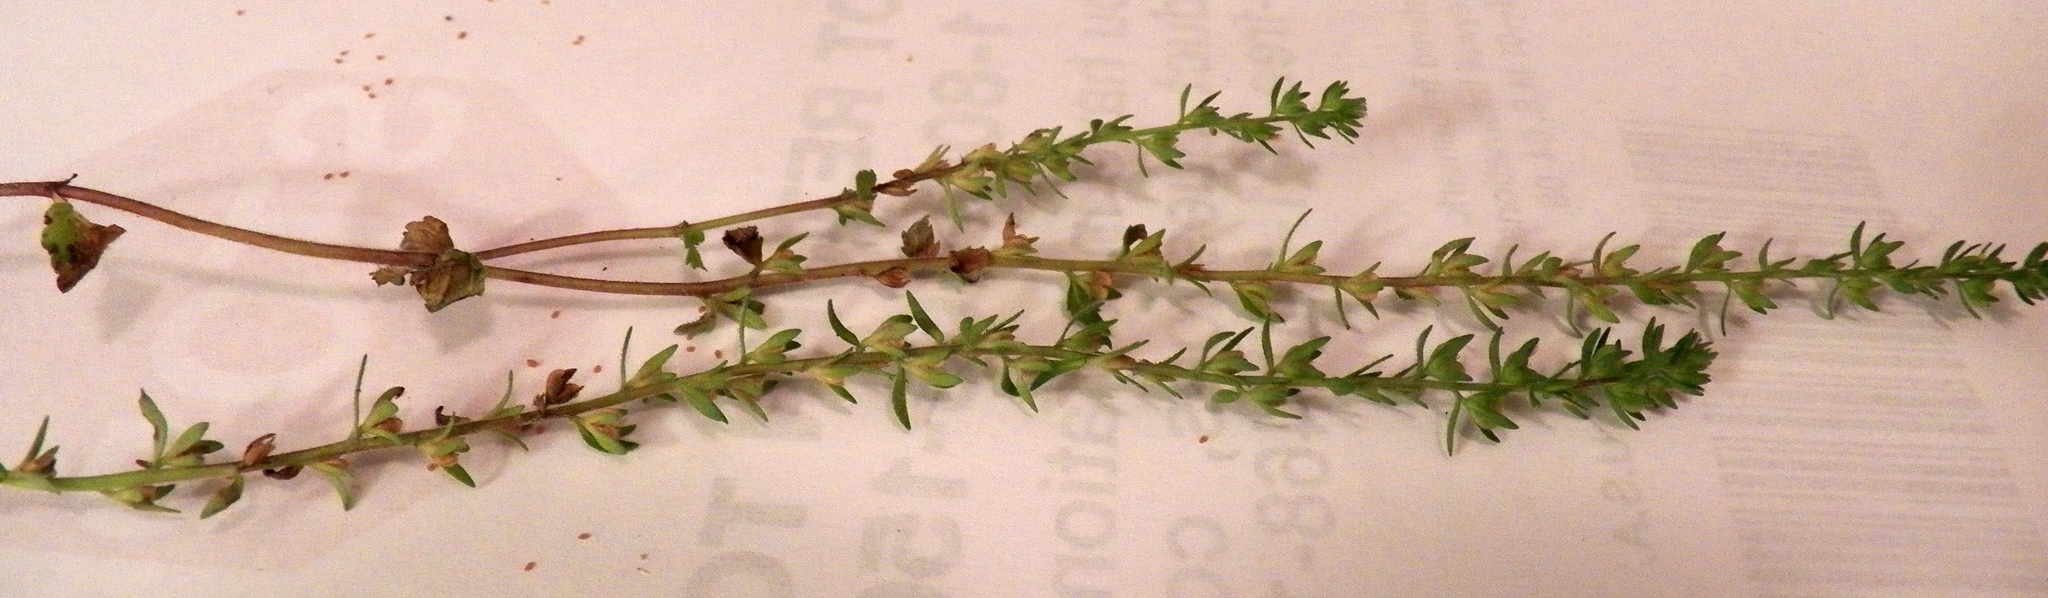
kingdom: Plantae
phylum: Tracheophyta
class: Magnoliopsida
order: Gentianales
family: Rubiaceae
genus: Sherardia
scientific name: Sherardia arvensis
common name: Field madder
